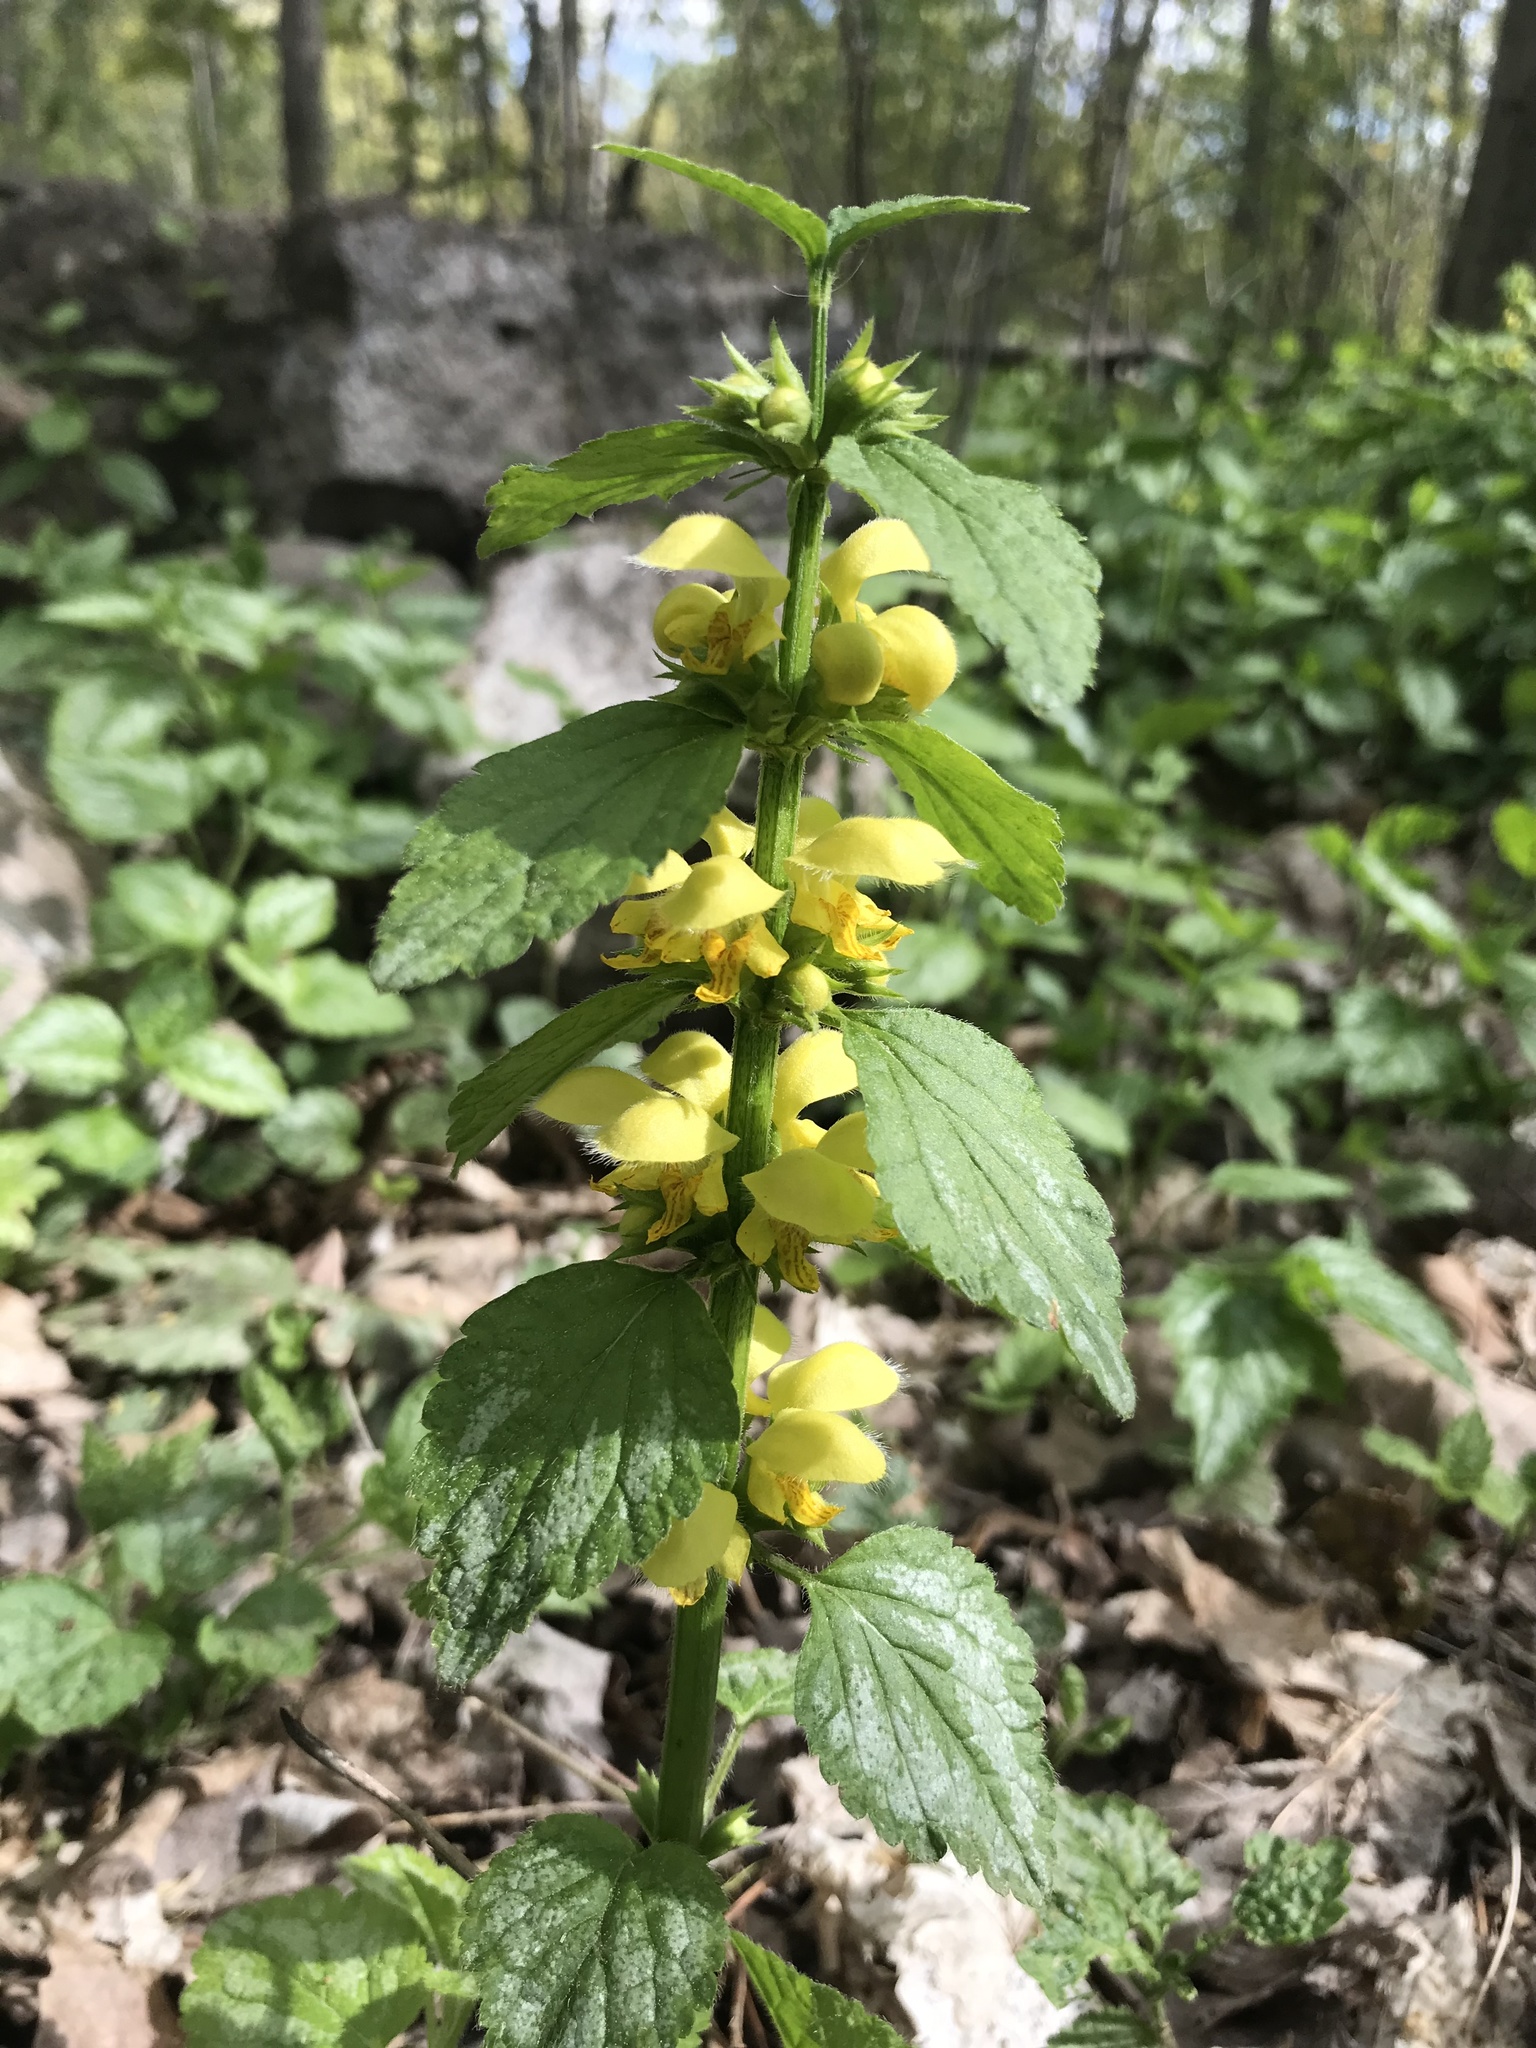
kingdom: Plantae
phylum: Tracheophyta
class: Magnoliopsida
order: Lamiales
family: Lamiaceae
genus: Lamium
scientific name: Lamium galeobdolon
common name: Yellow archangel
